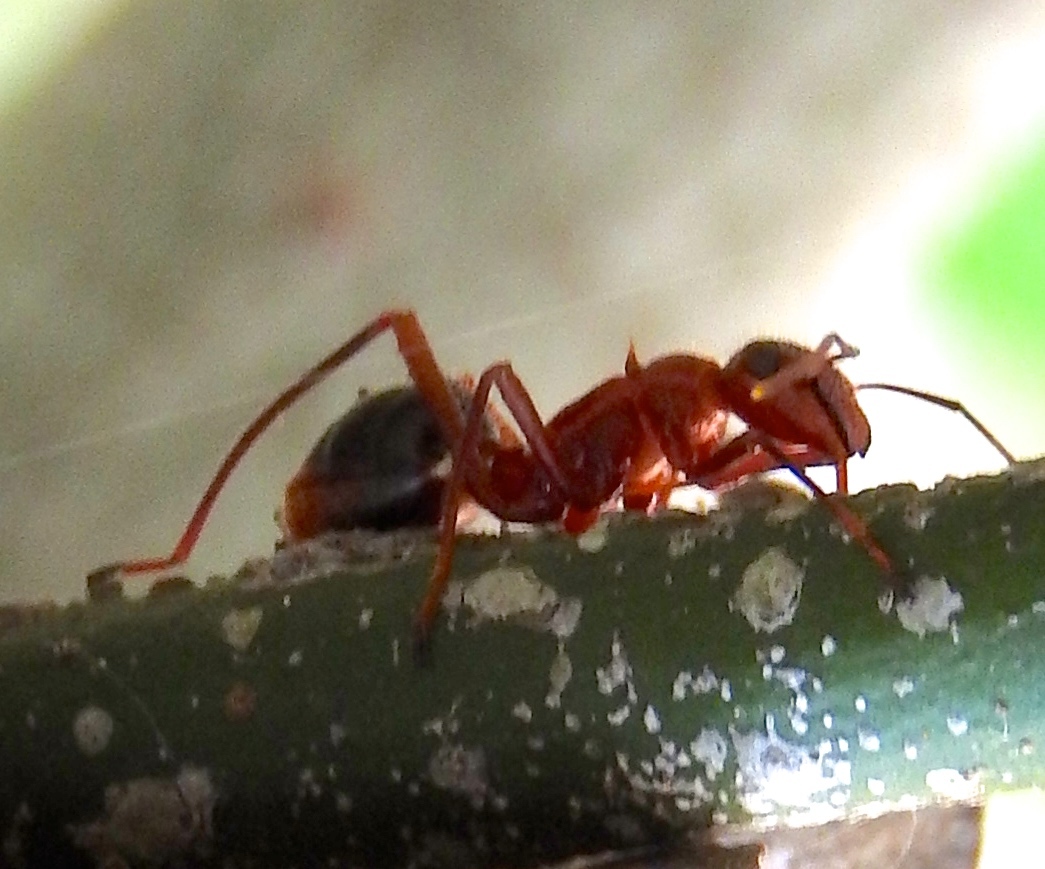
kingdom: Animalia
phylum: Arthropoda
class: Insecta
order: Hymenoptera
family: Formicidae
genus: Camponotus
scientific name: Camponotus
